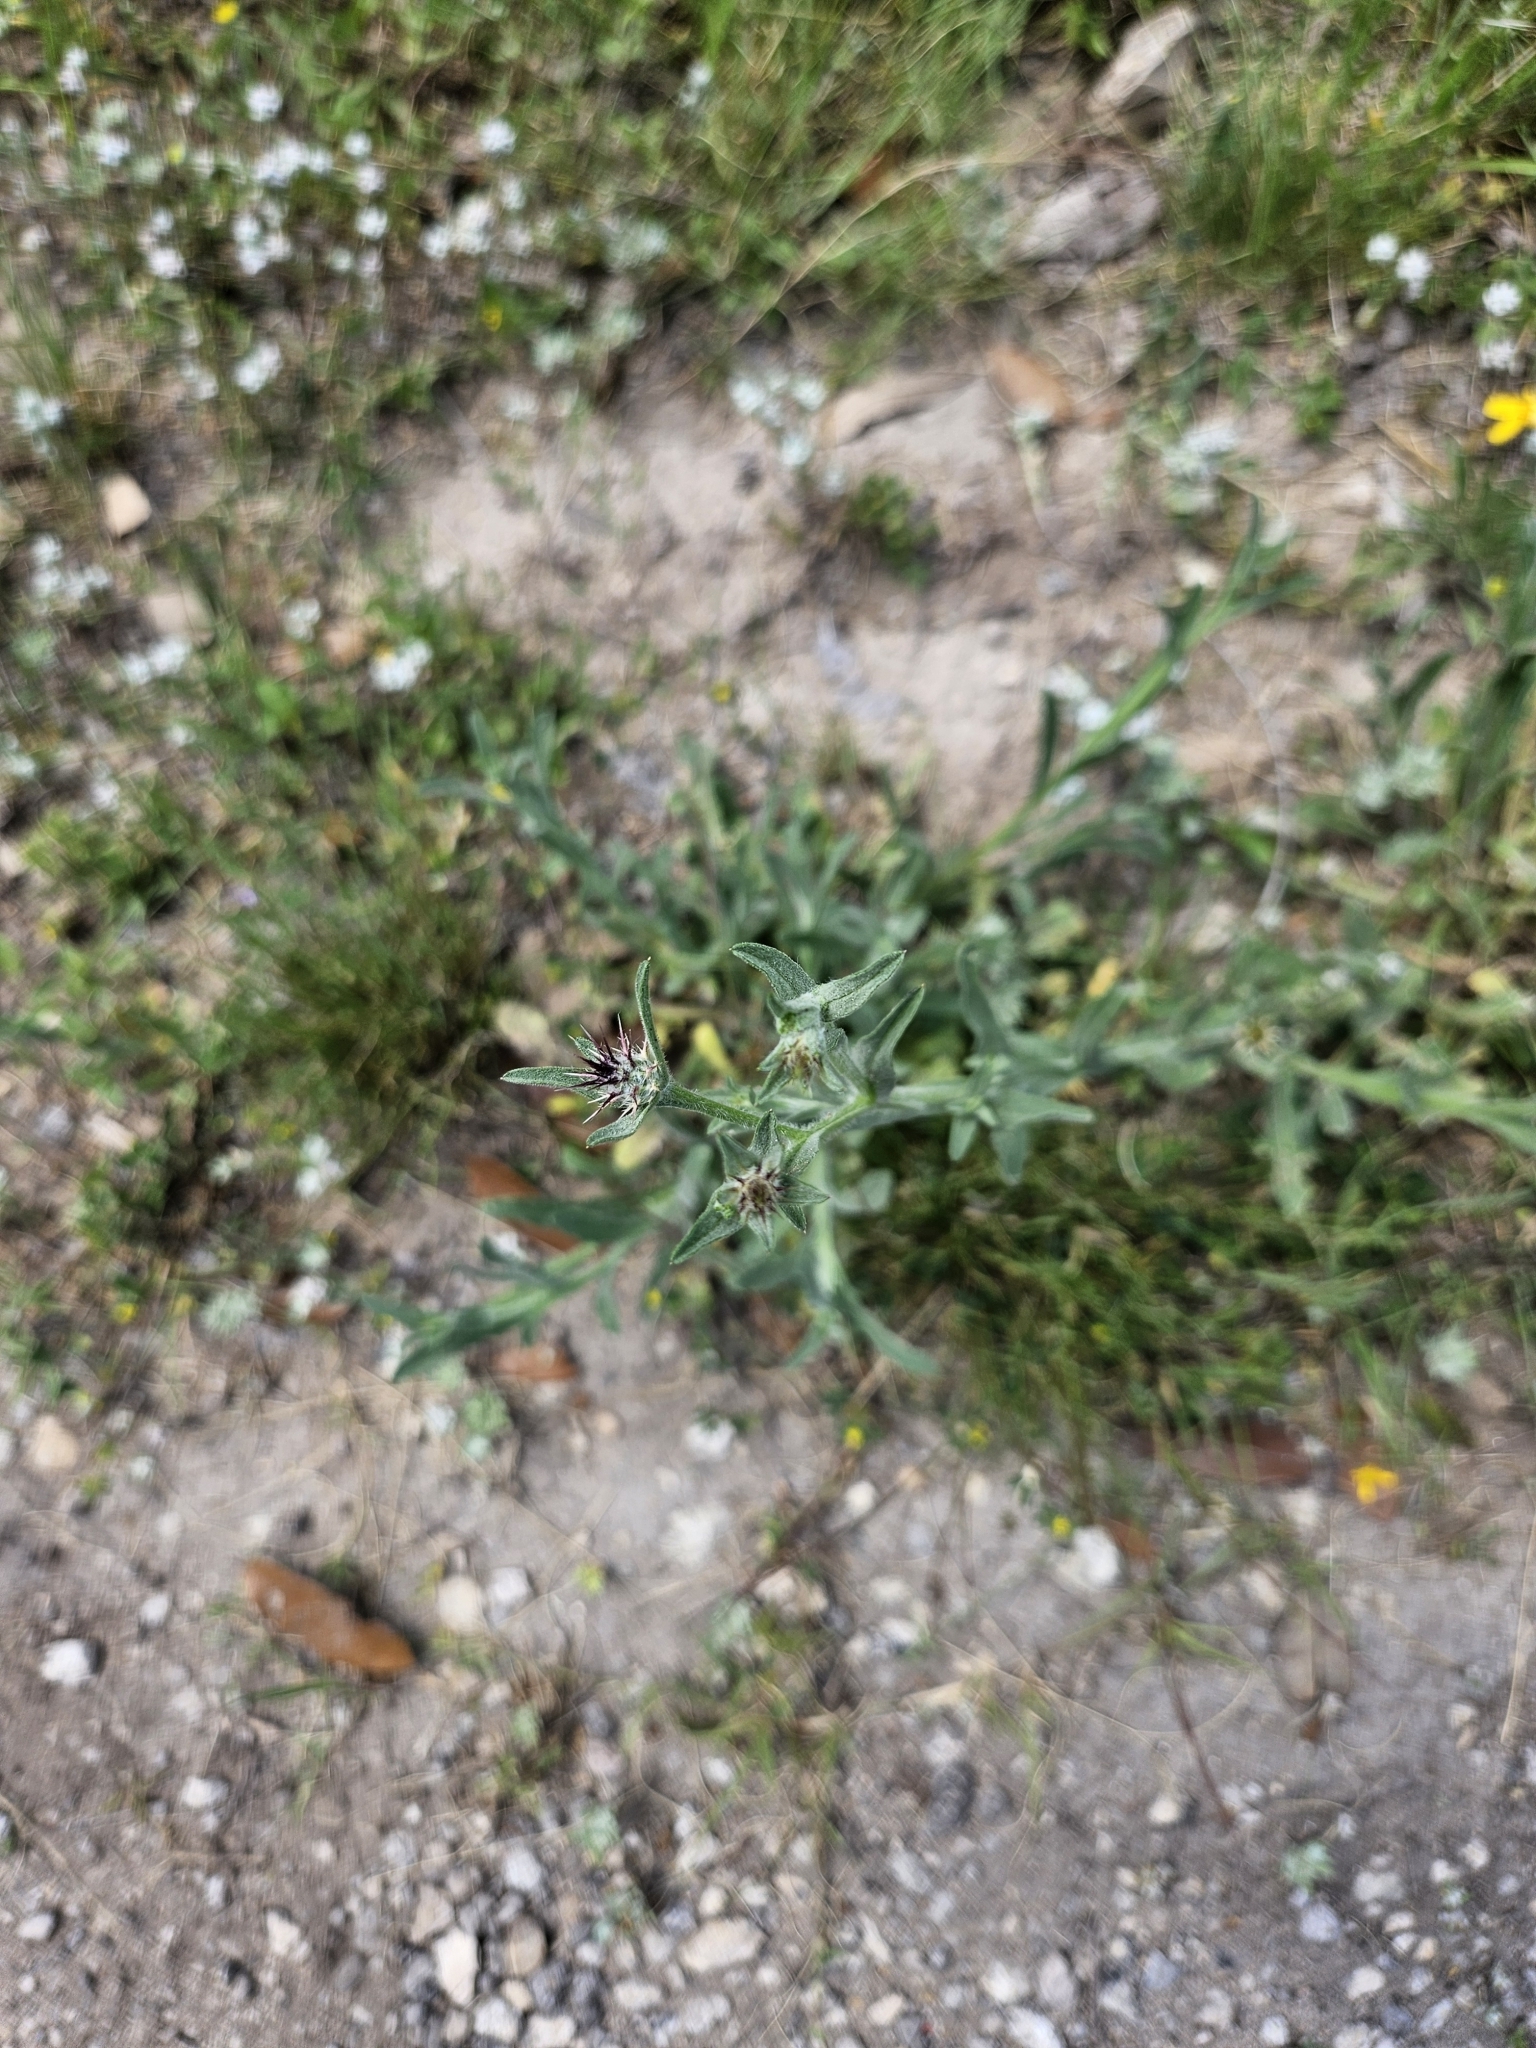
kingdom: Plantae
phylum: Tracheophyta
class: Magnoliopsida
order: Asterales
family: Asteraceae
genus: Centaurea
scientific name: Centaurea melitensis
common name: Maltese star-thistle
